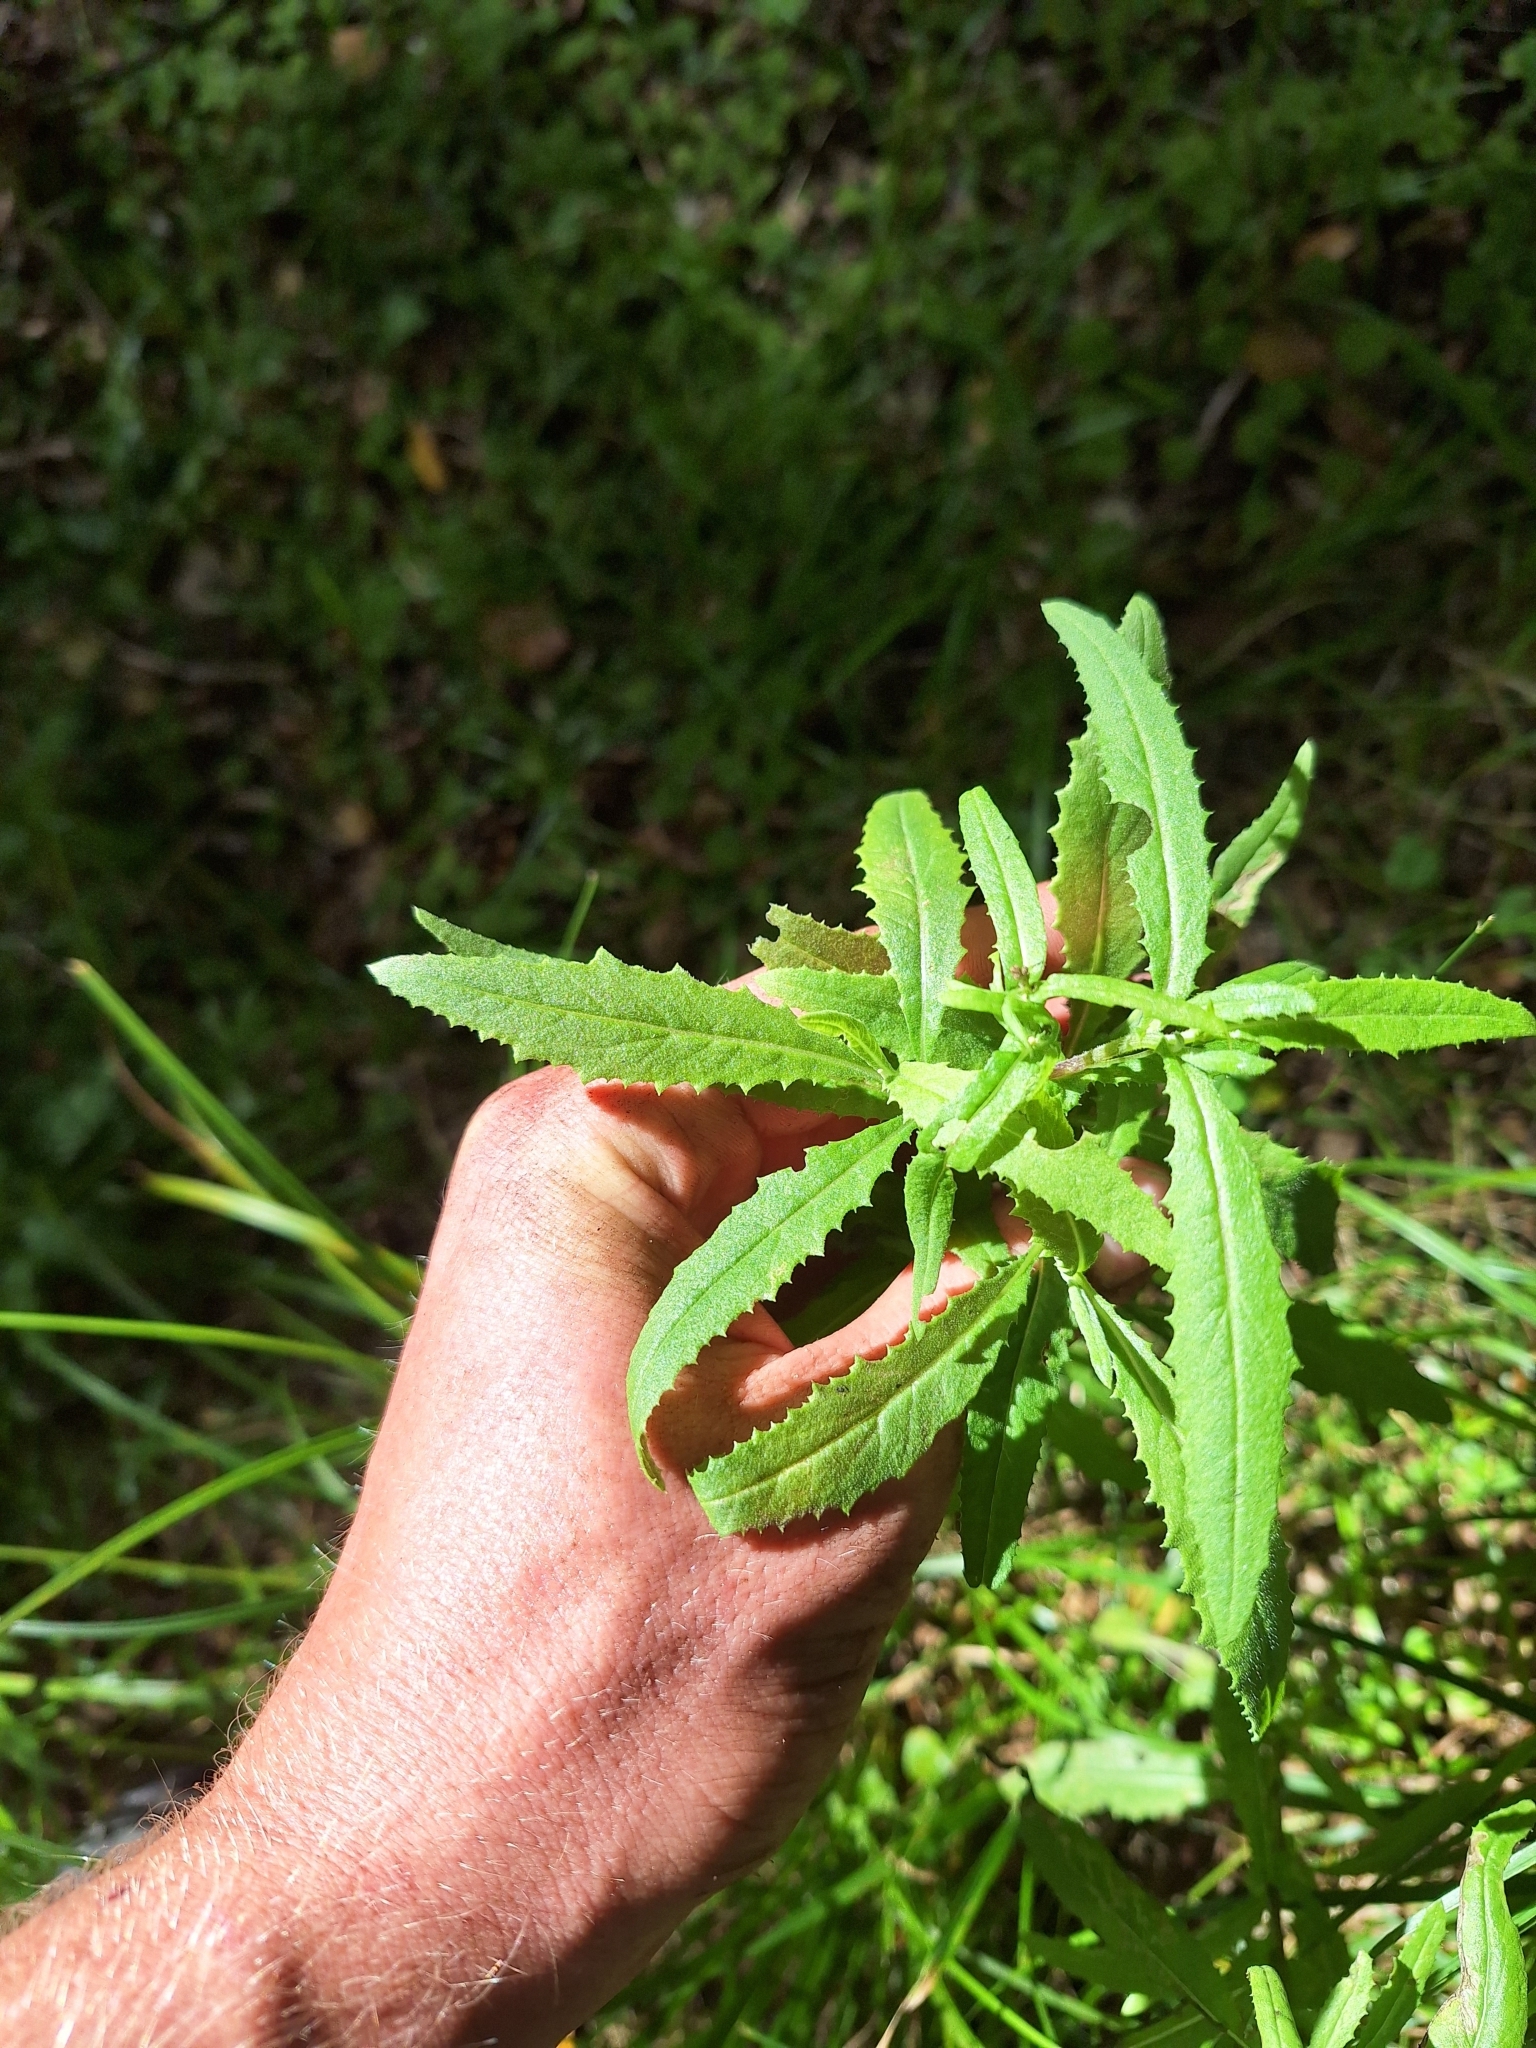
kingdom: Plantae
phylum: Tracheophyta
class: Magnoliopsida
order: Asterales
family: Asteraceae
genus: Senecio
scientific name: Senecio minimus
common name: Toothed fireweed
